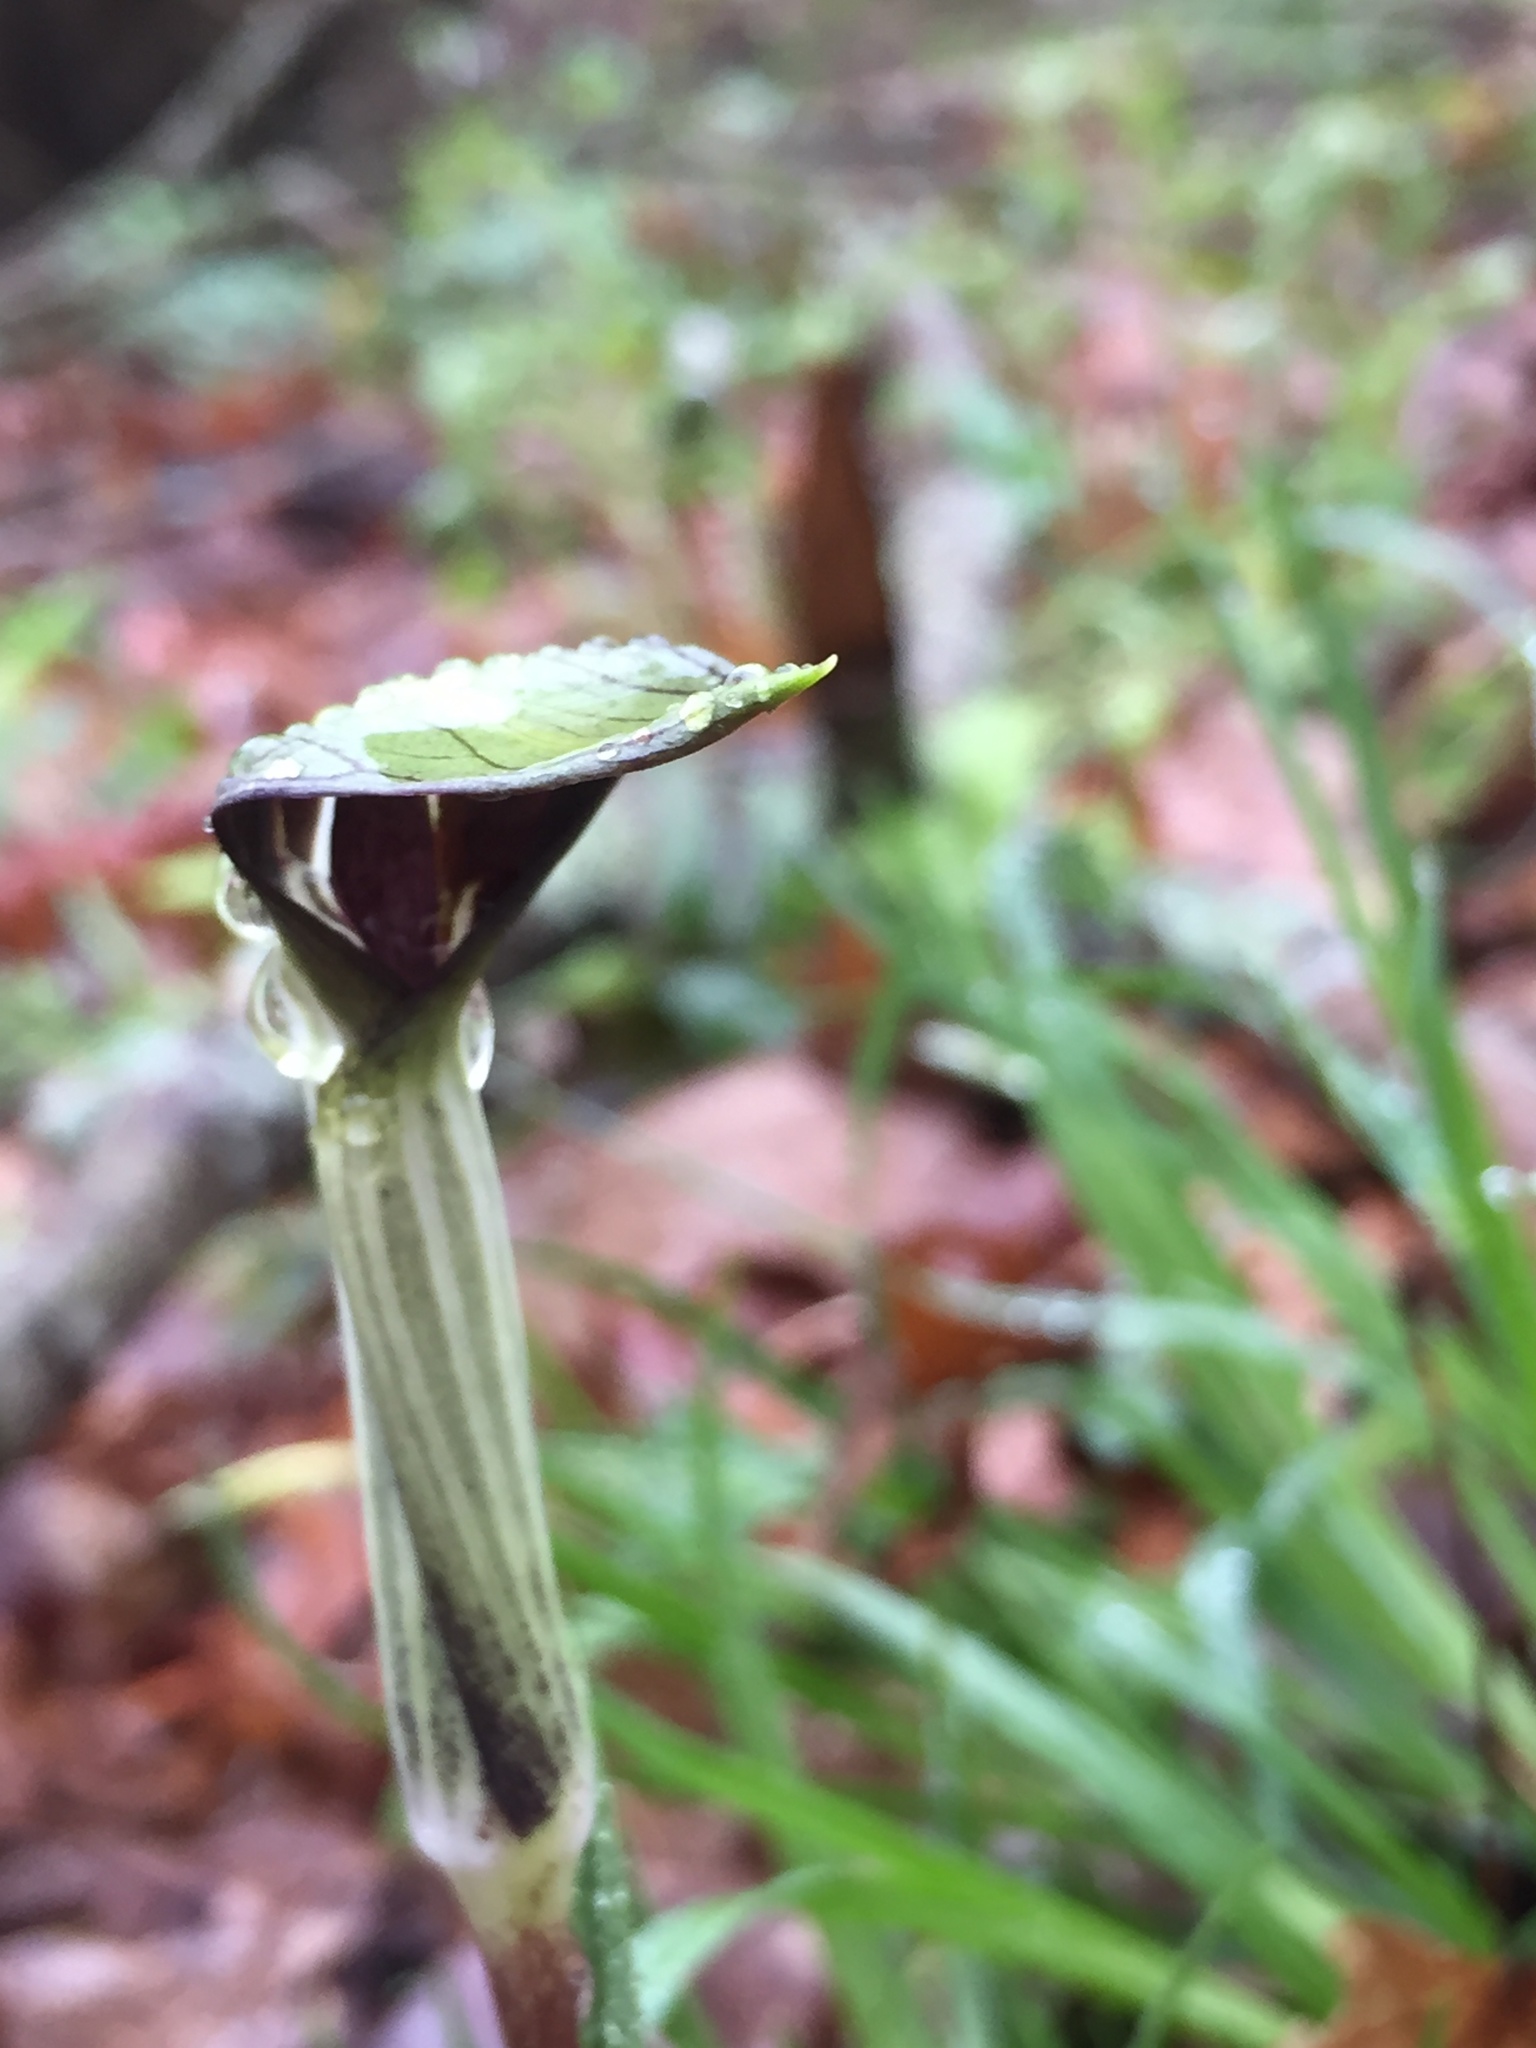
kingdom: Plantae
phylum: Tracheophyta
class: Liliopsida
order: Alismatales
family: Araceae
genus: Arisaema
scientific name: Arisaema triphyllum
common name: Jack-in-the-pulpit
